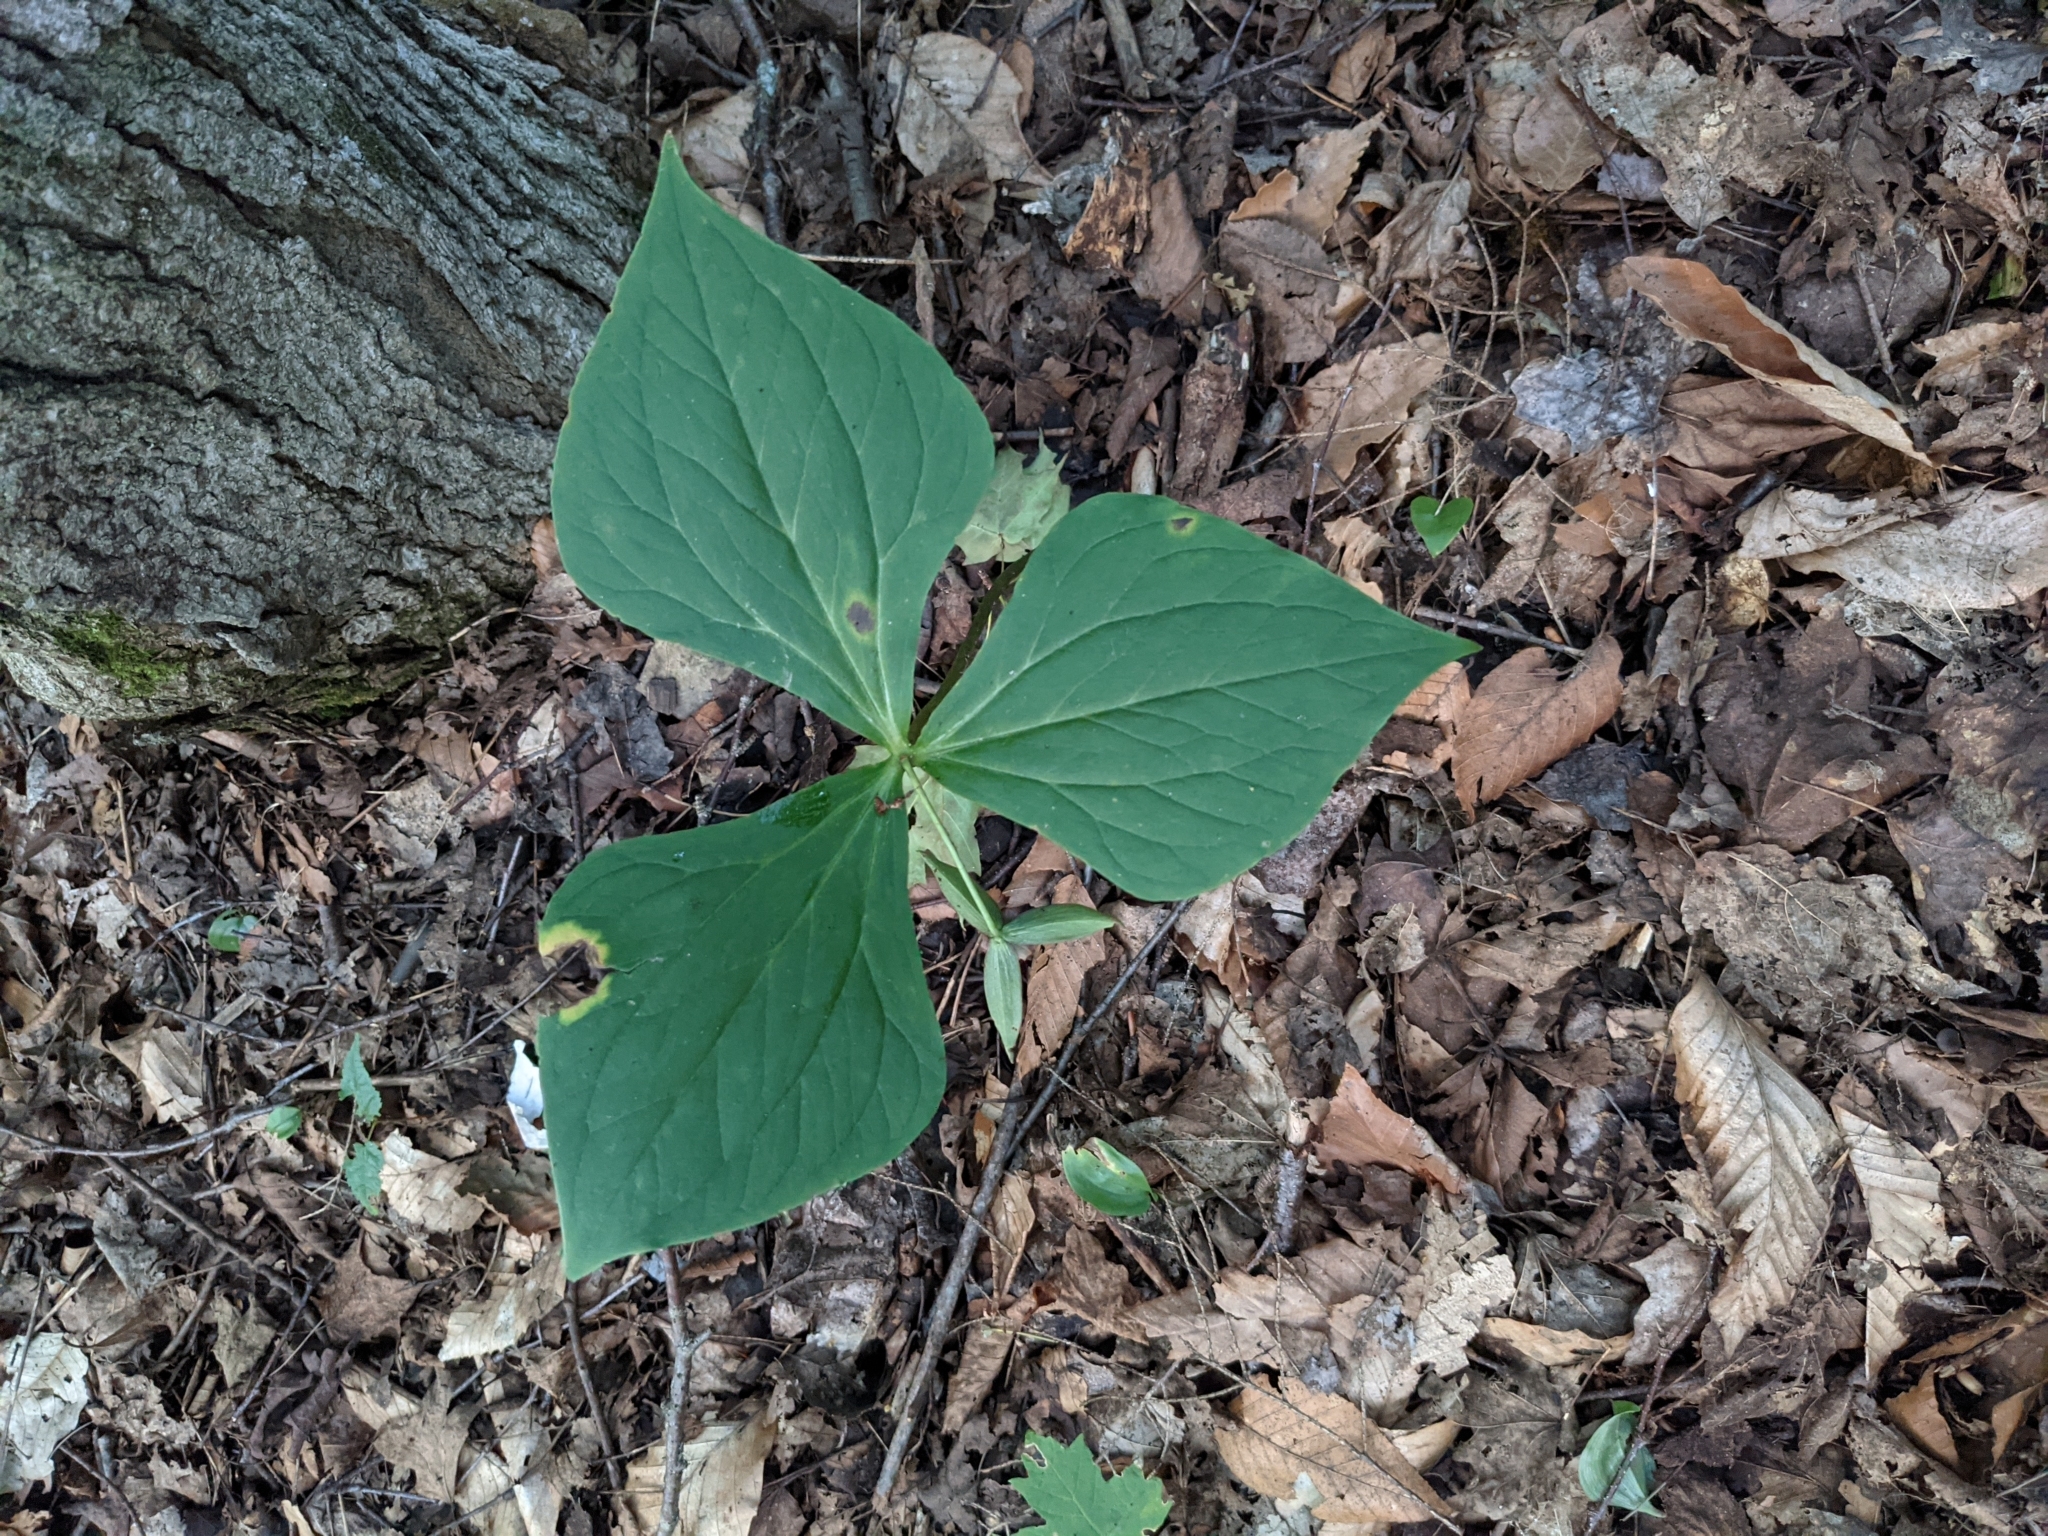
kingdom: Plantae
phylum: Tracheophyta
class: Liliopsida
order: Liliales
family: Melanthiaceae
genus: Trillium
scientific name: Trillium erectum
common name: Purple trillium
